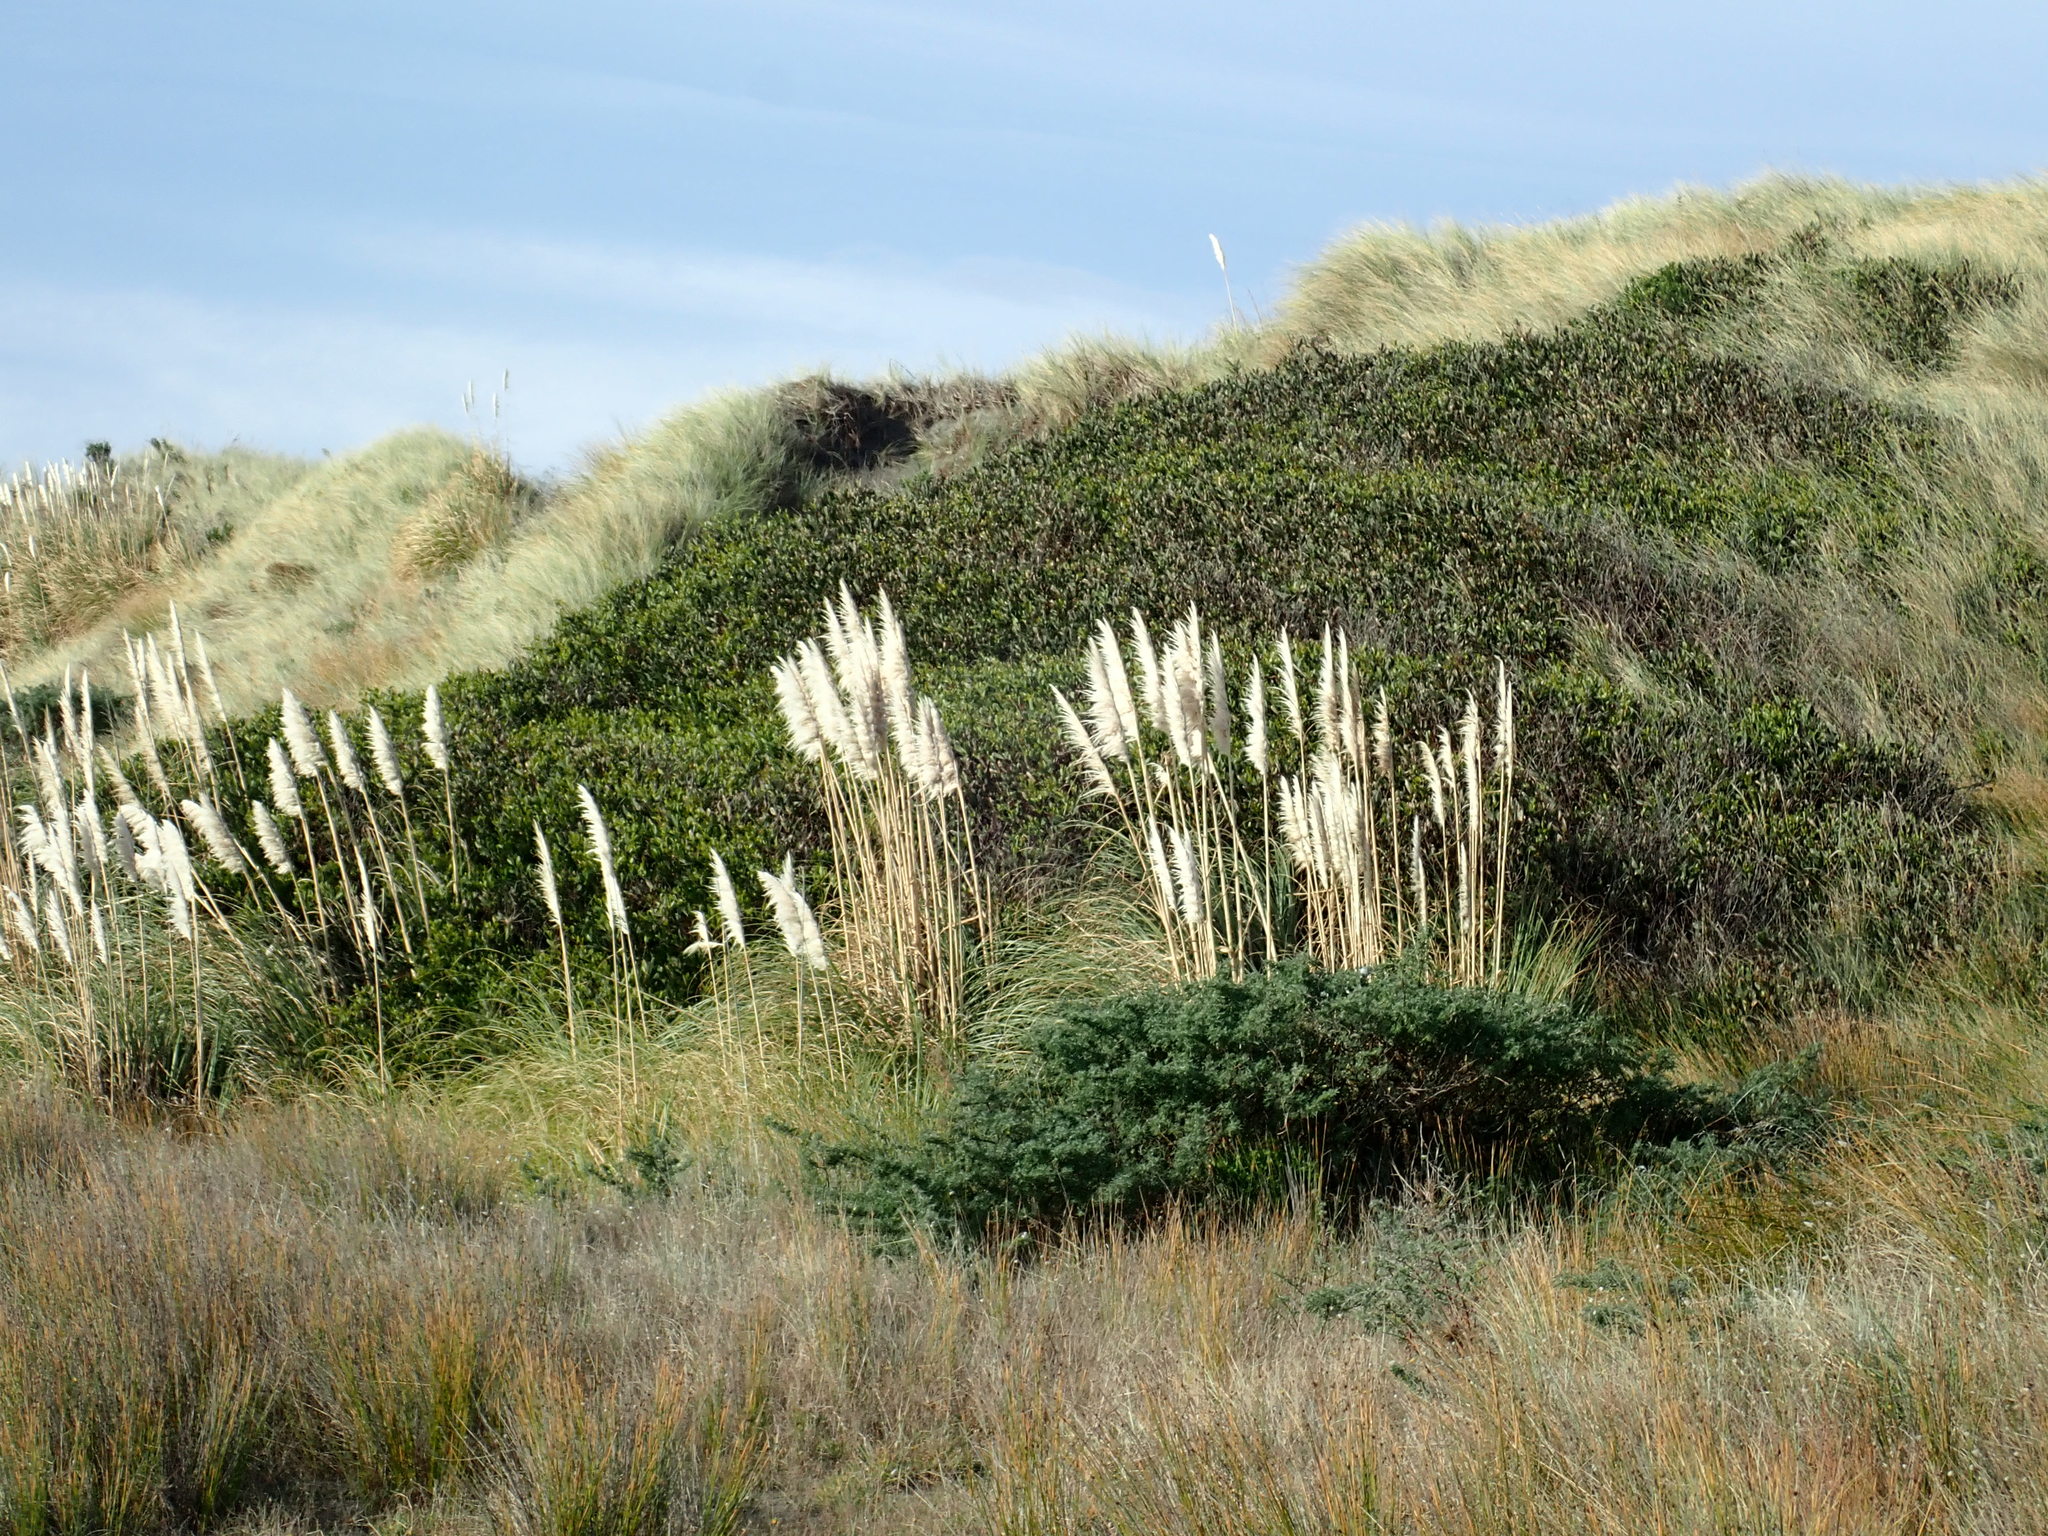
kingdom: Plantae
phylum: Tracheophyta
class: Magnoliopsida
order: Fabales
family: Fabaceae
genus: Acacia
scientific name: Acacia longifolia
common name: Sydney golden wattle
